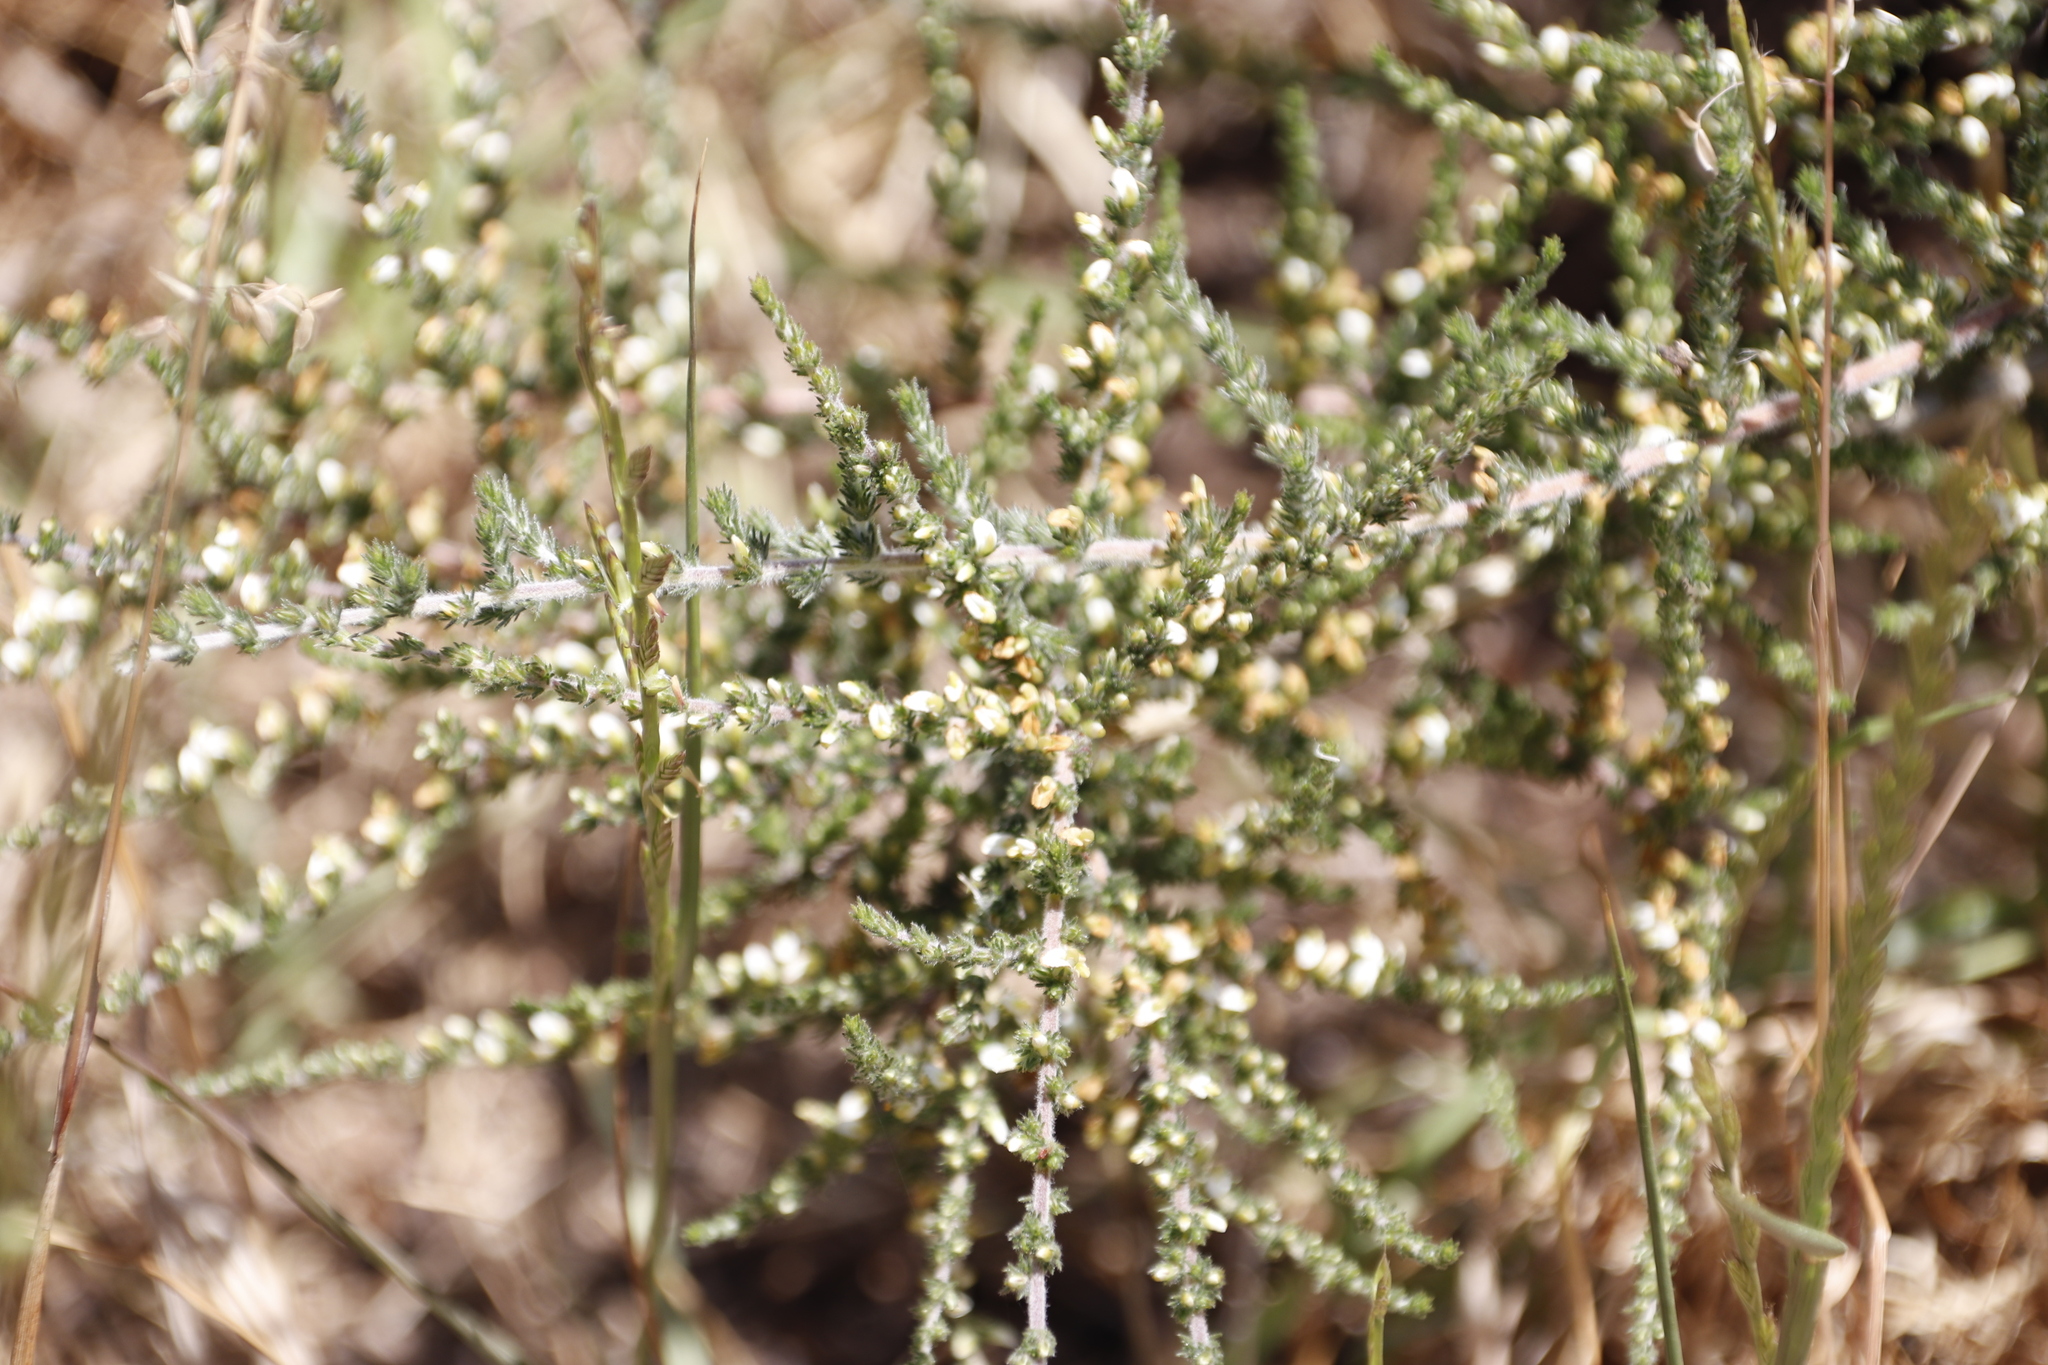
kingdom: Plantae
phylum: Tracheophyta
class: Magnoliopsida
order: Fabales
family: Fabaceae
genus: Aspalathus
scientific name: Aspalathus hispida
